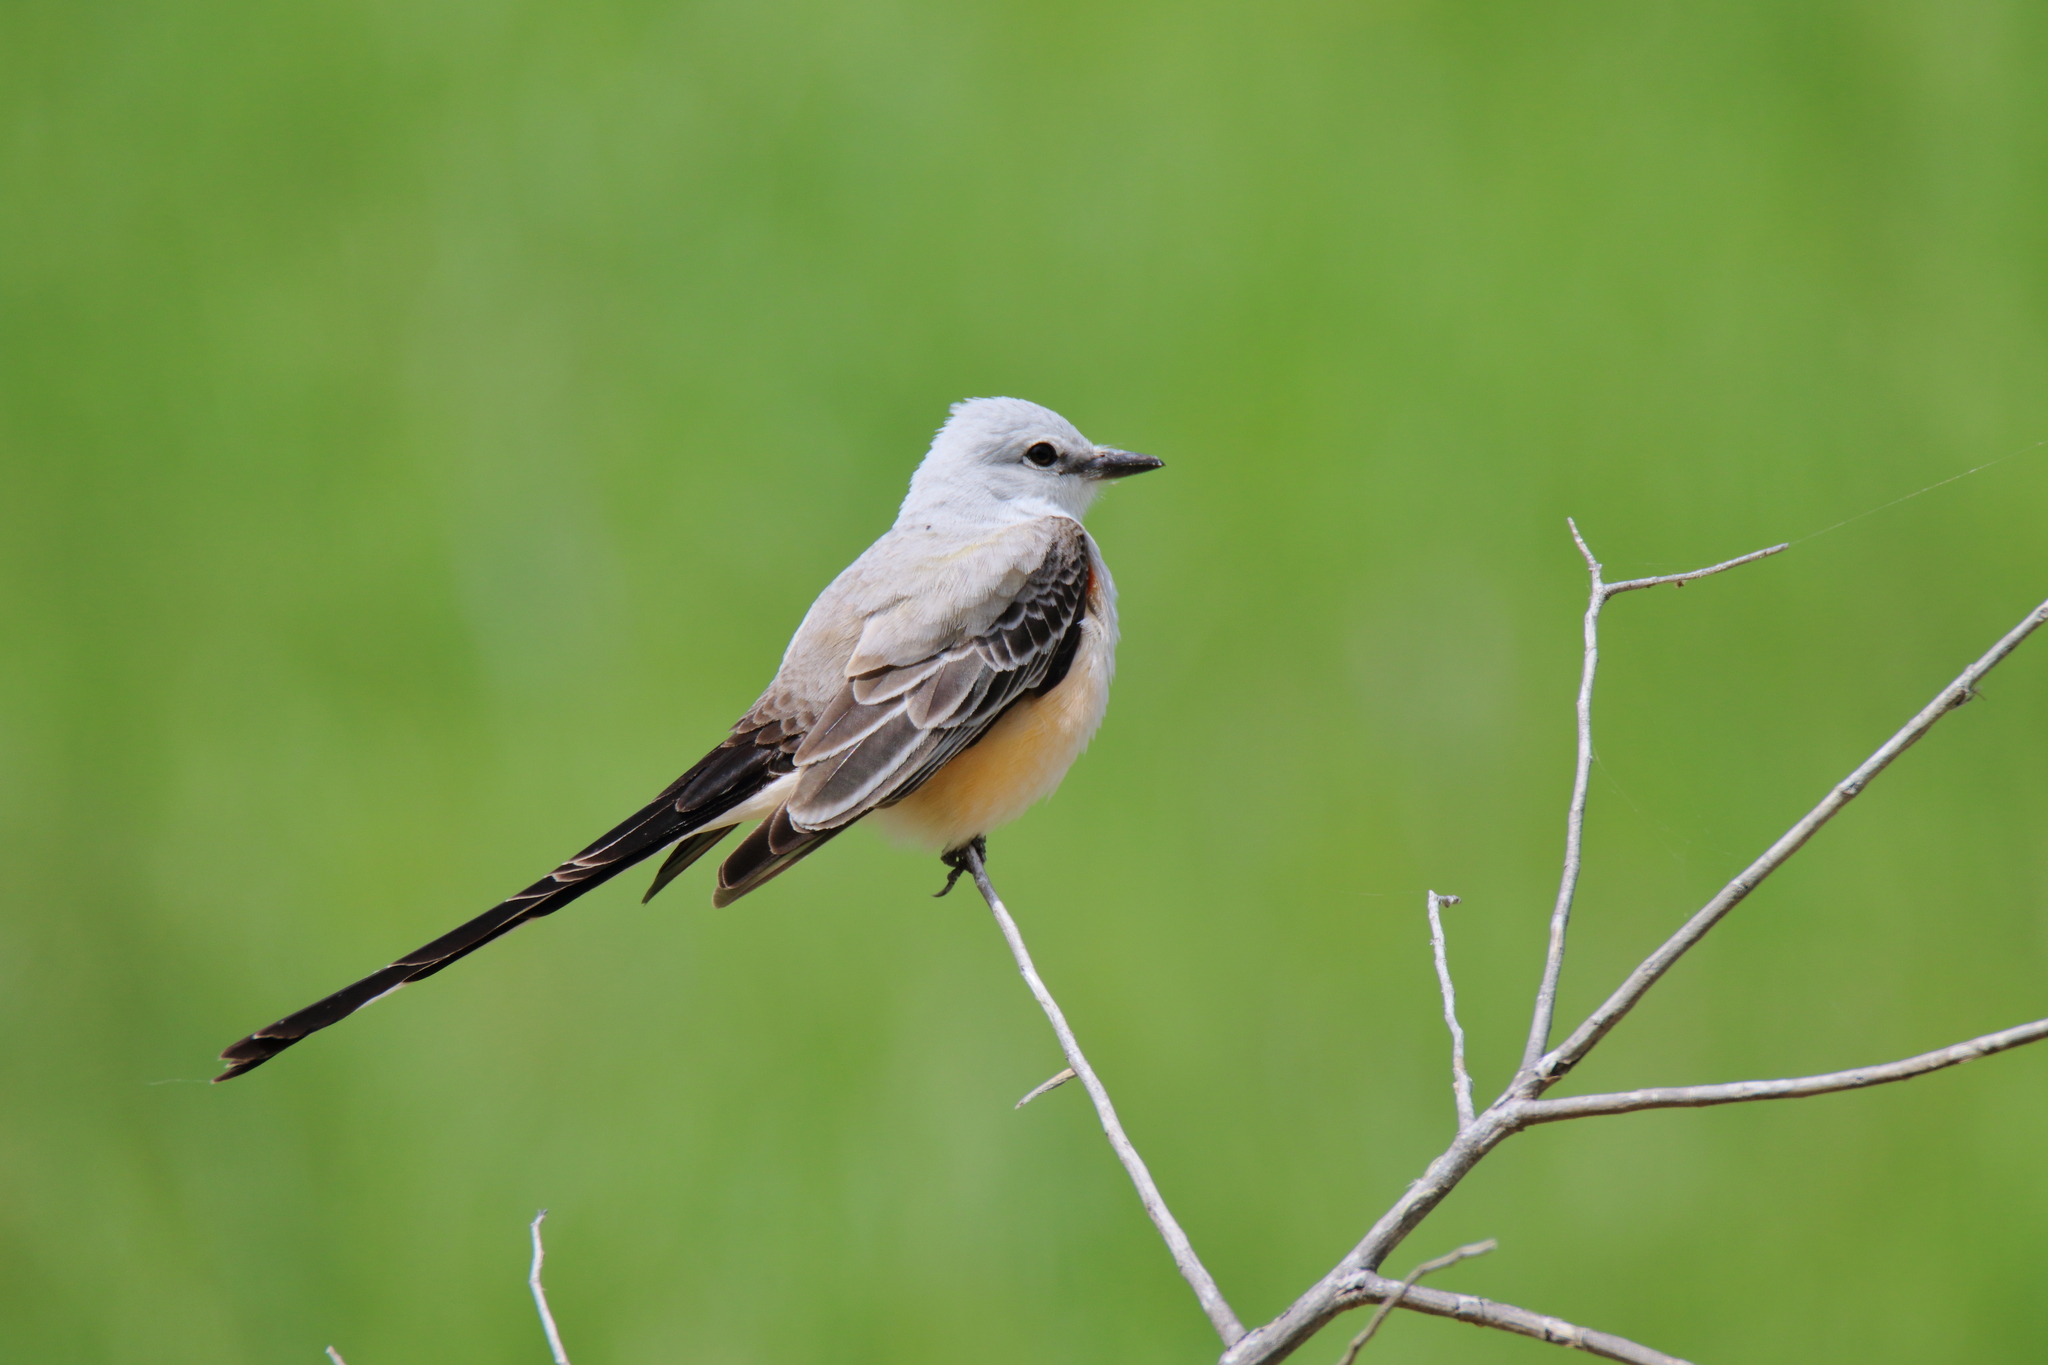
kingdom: Animalia
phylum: Chordata
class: Aves
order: Passeriformes
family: Tyrannidae
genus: Tyrannus
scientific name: Tyrannus forficatus
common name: Scissor-tailed flycatcher
